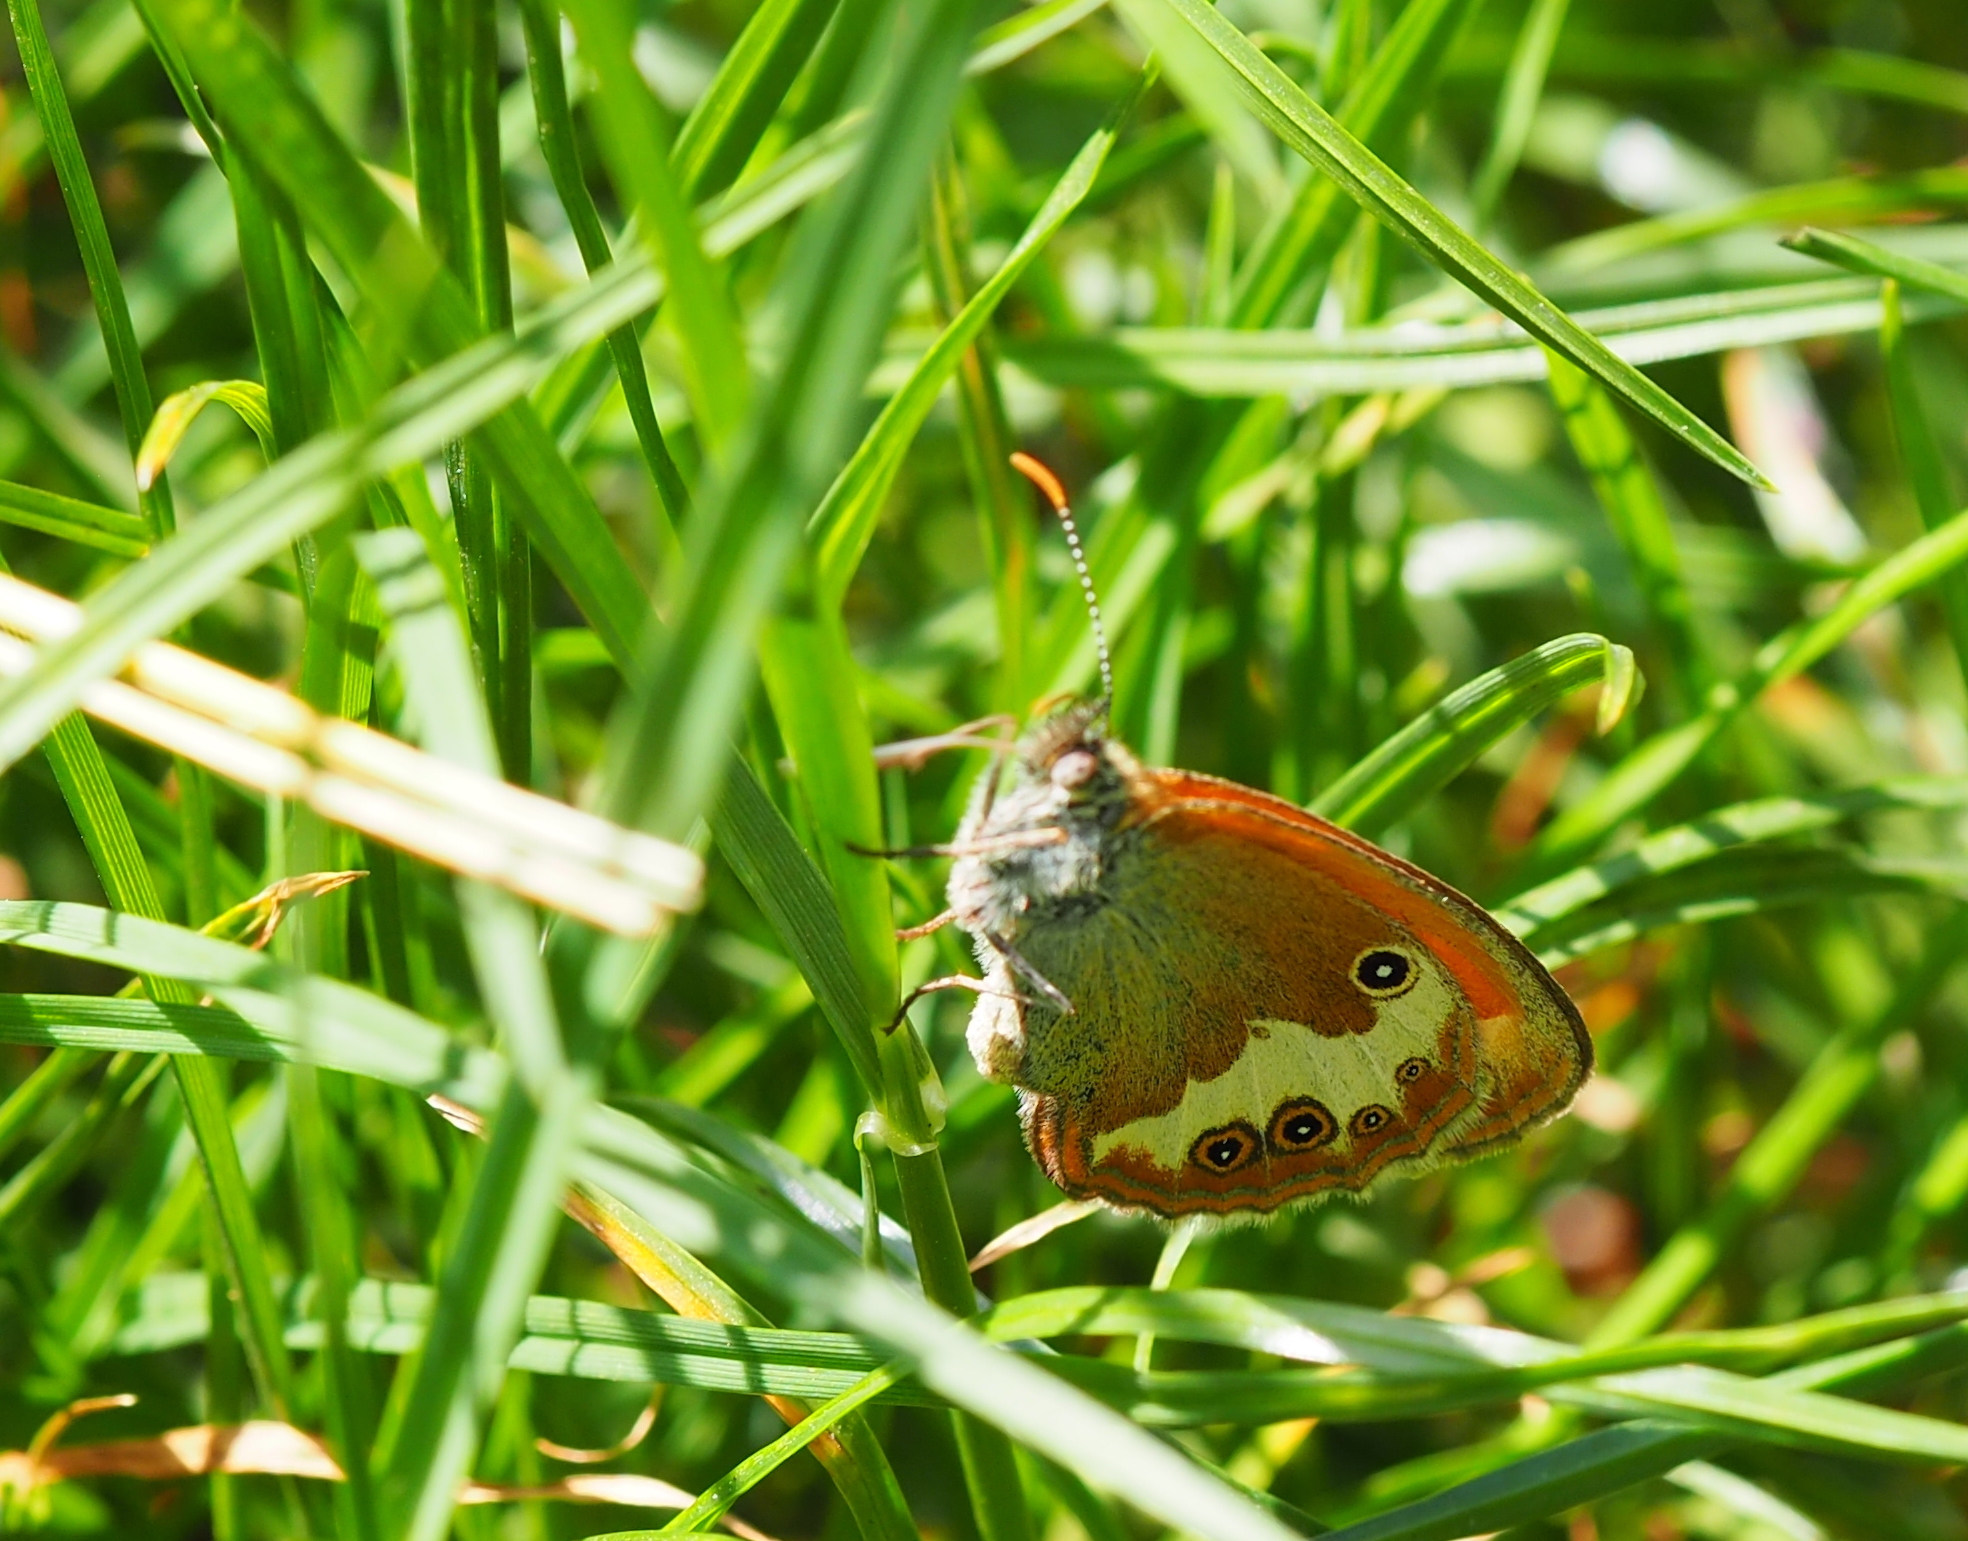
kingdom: Animalia
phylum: Arthropoda
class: Insecta
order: Lepidoptera
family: Nymphalidae
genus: Coenonympha
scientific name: Coenonympha arcania
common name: Pearly heath
